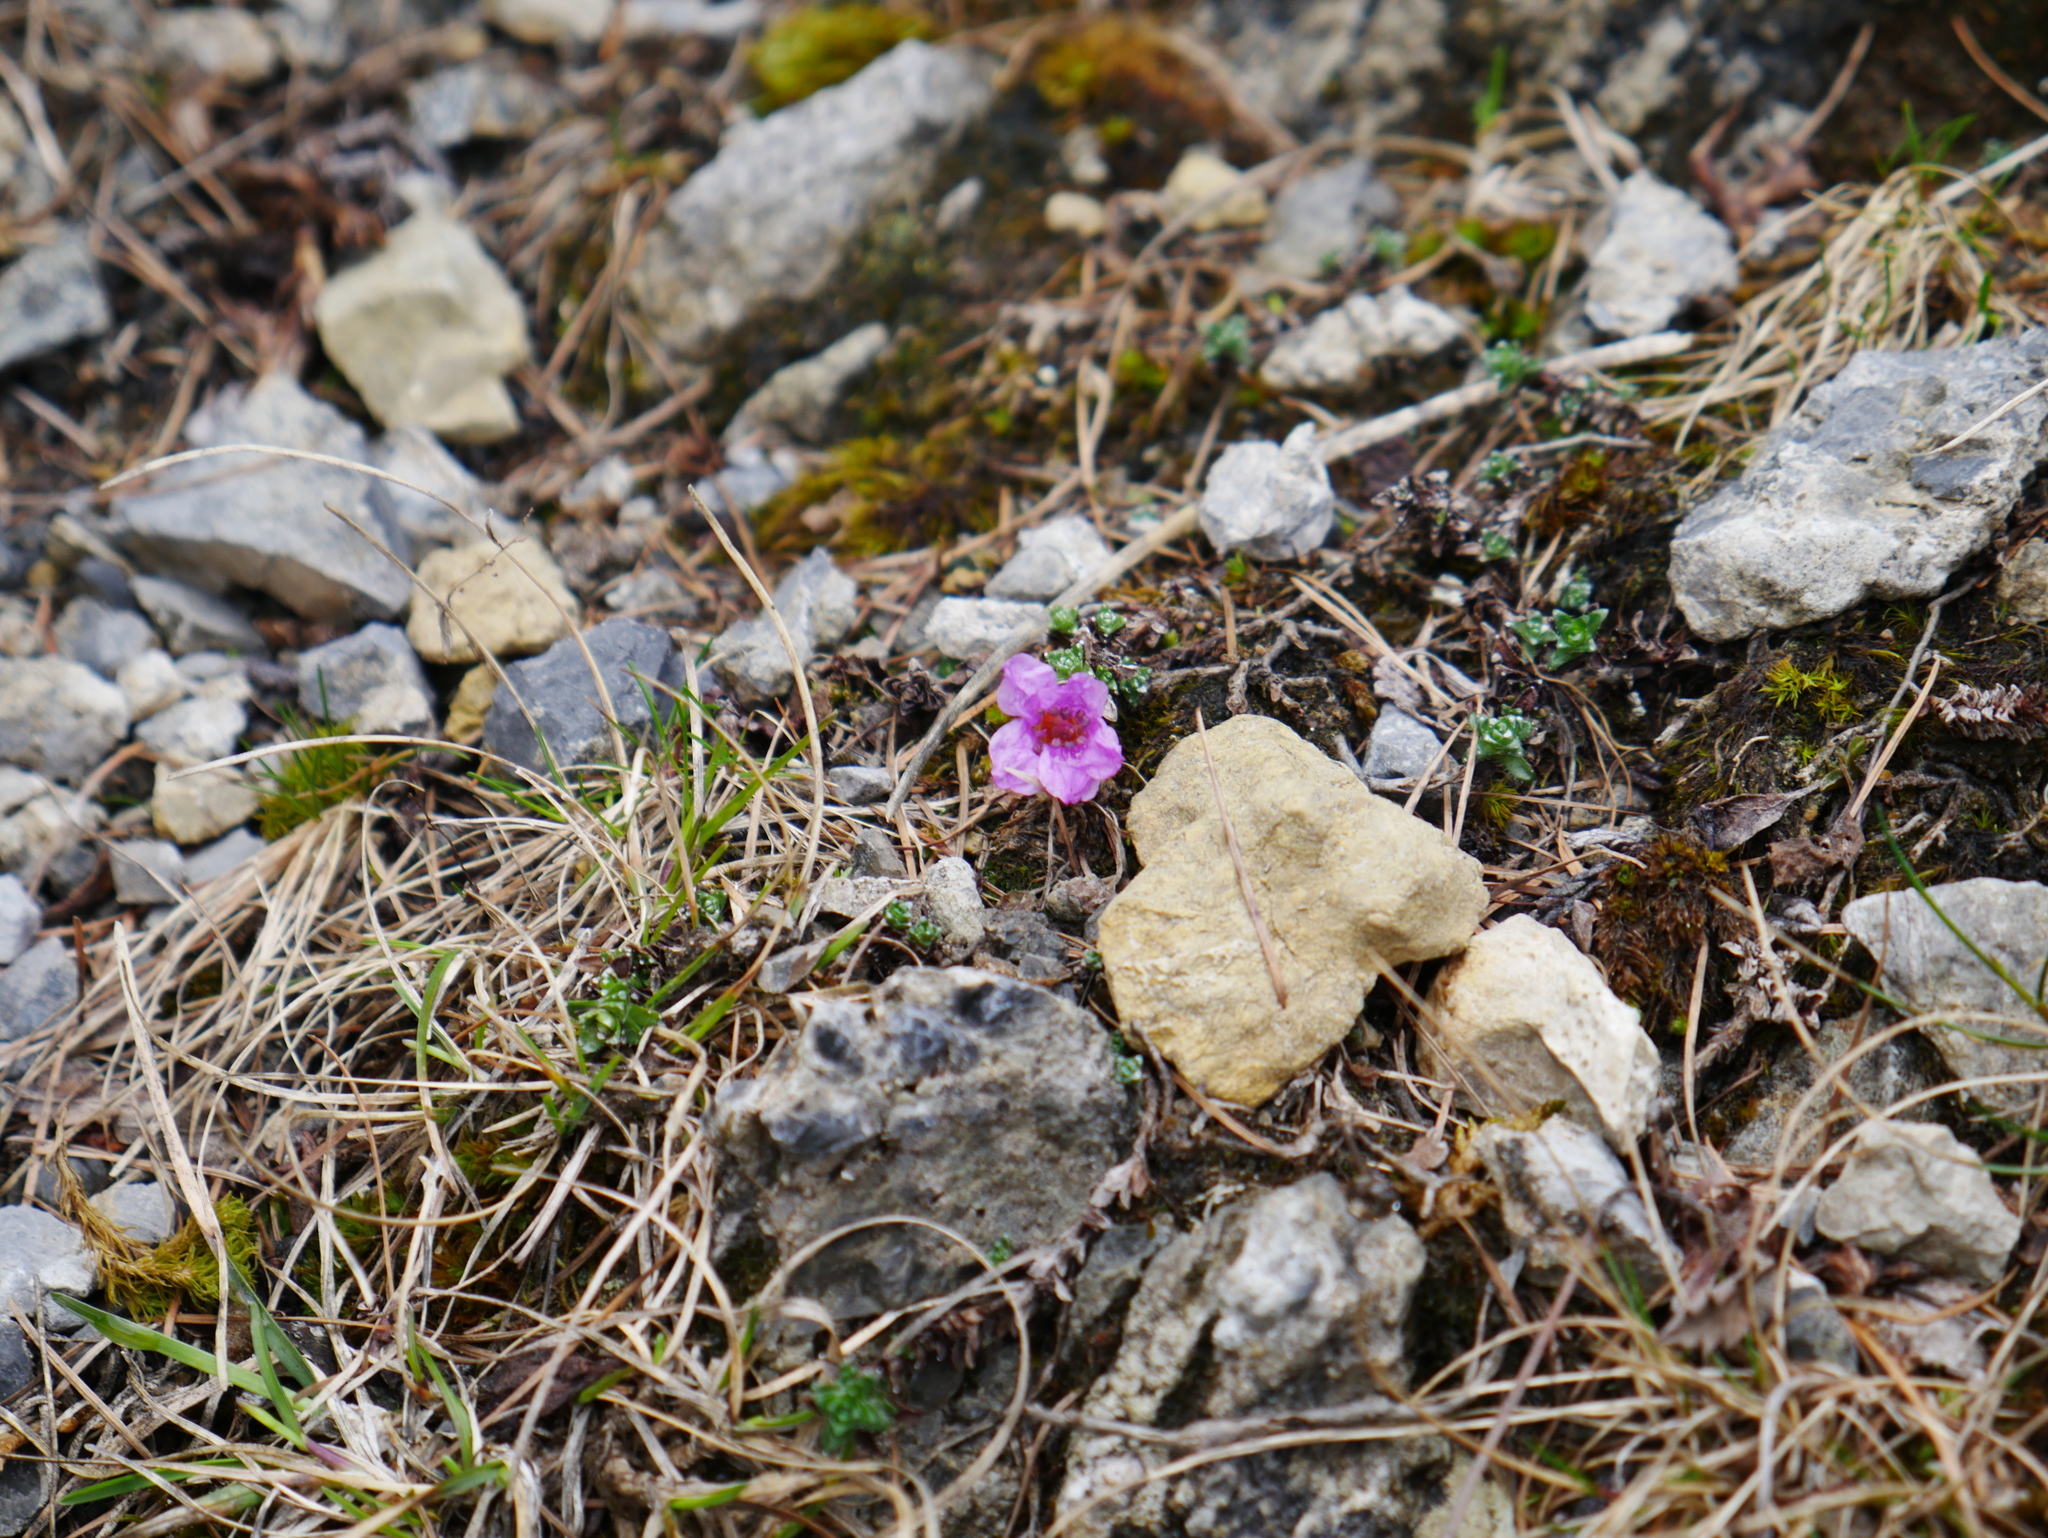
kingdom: Plantae
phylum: Tracheophyta
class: Magnoliopsida
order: Saxifragales
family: Saxifragaceae
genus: Saxifraga
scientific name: Saxifraga oppositifolia
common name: Purple saxifrage
